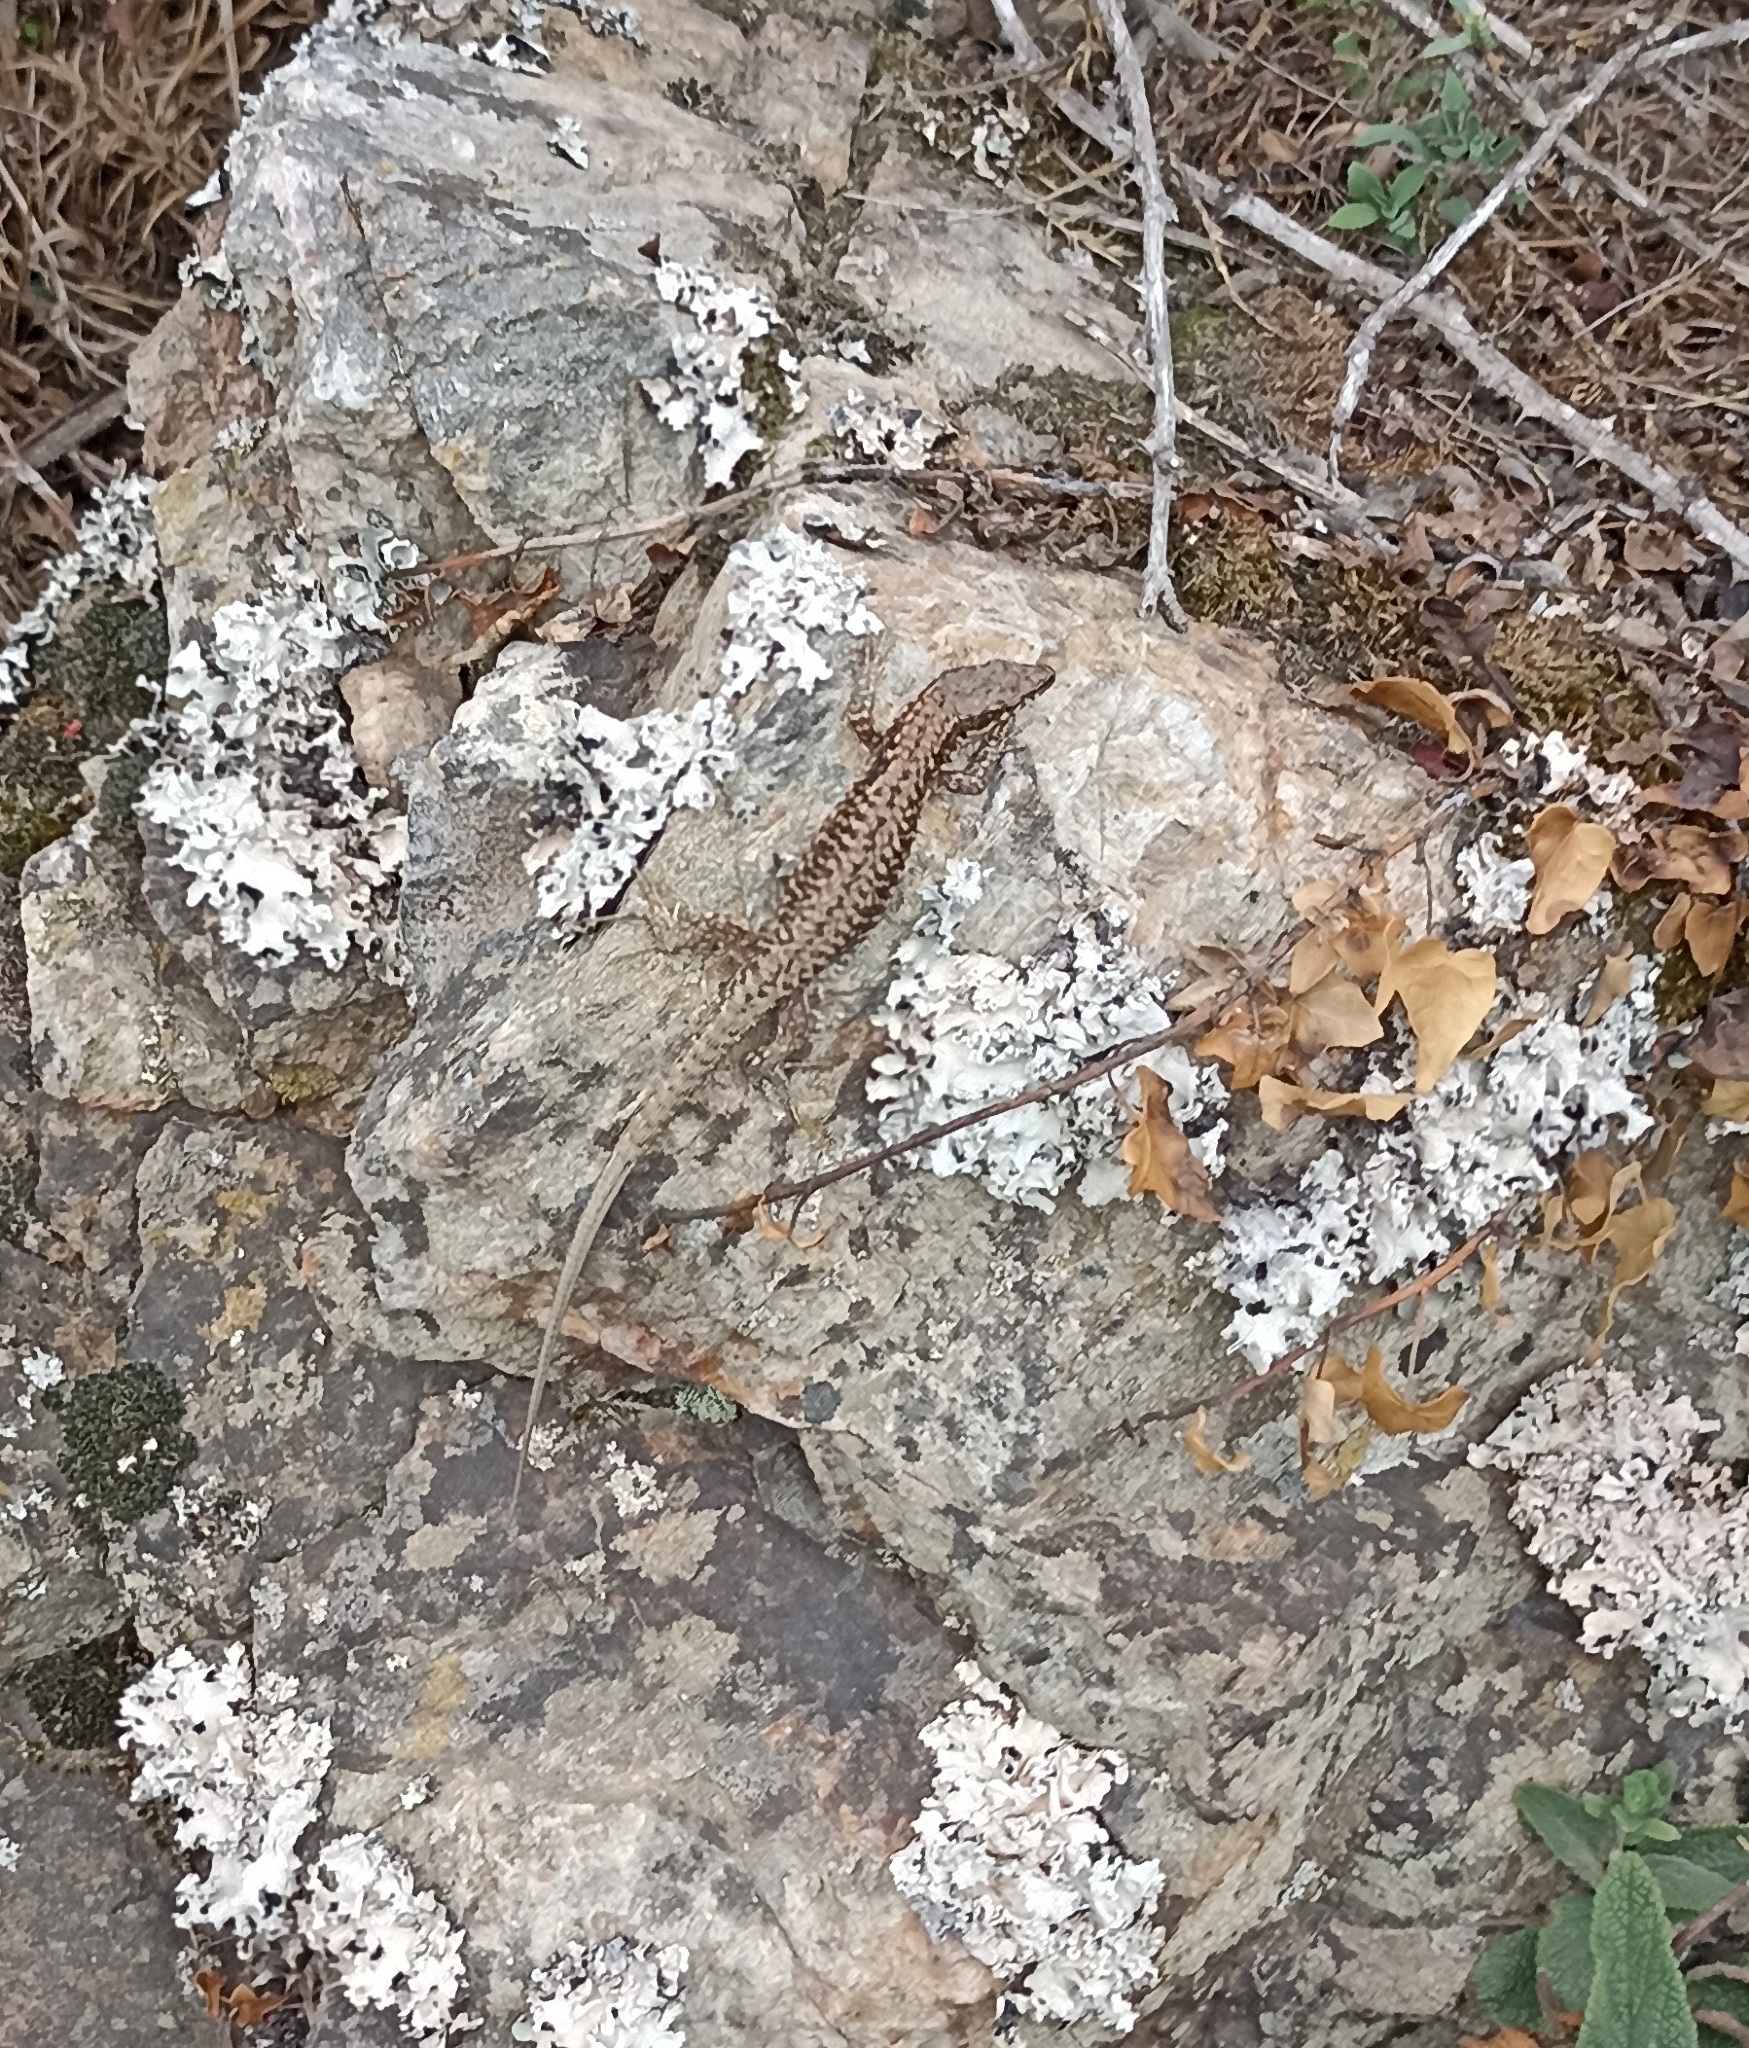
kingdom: Animalia
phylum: Chordata
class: Squamata
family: Lacertidae
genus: Podarcis
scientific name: Podarcis muralis
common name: Common wall lizard
